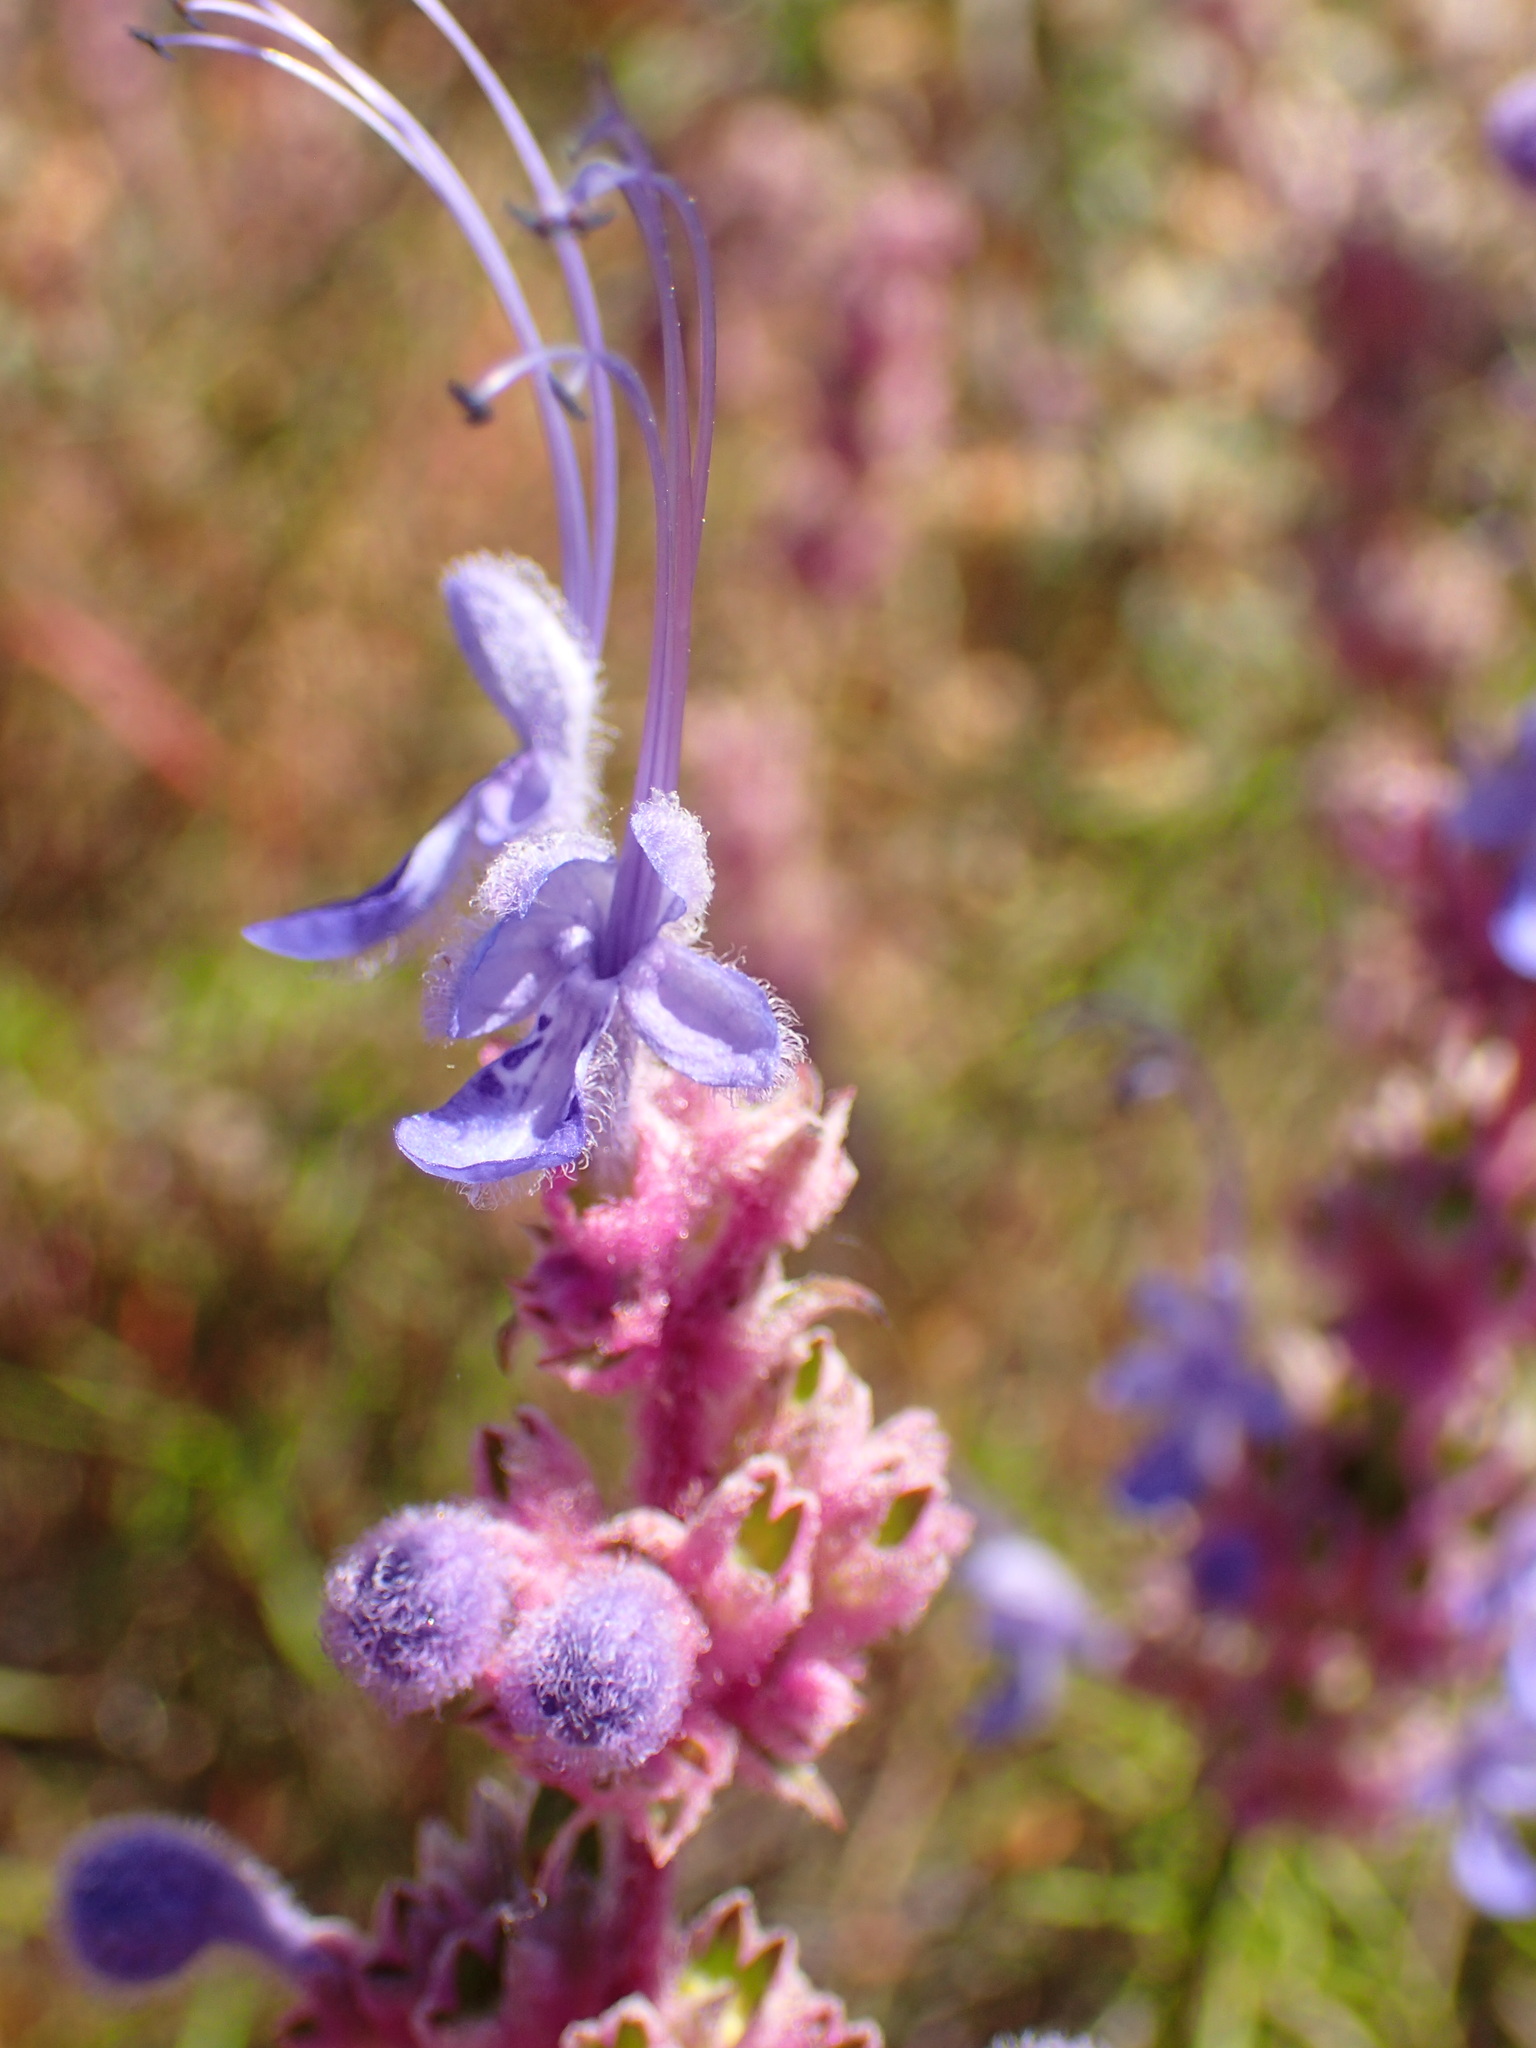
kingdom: Plantae
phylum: Tracheophyta
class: Magnoliopsida
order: Lamiales
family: Lamiaceae
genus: Trichostema
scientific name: Trichostema lanatum
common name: Woolly bluecurls
